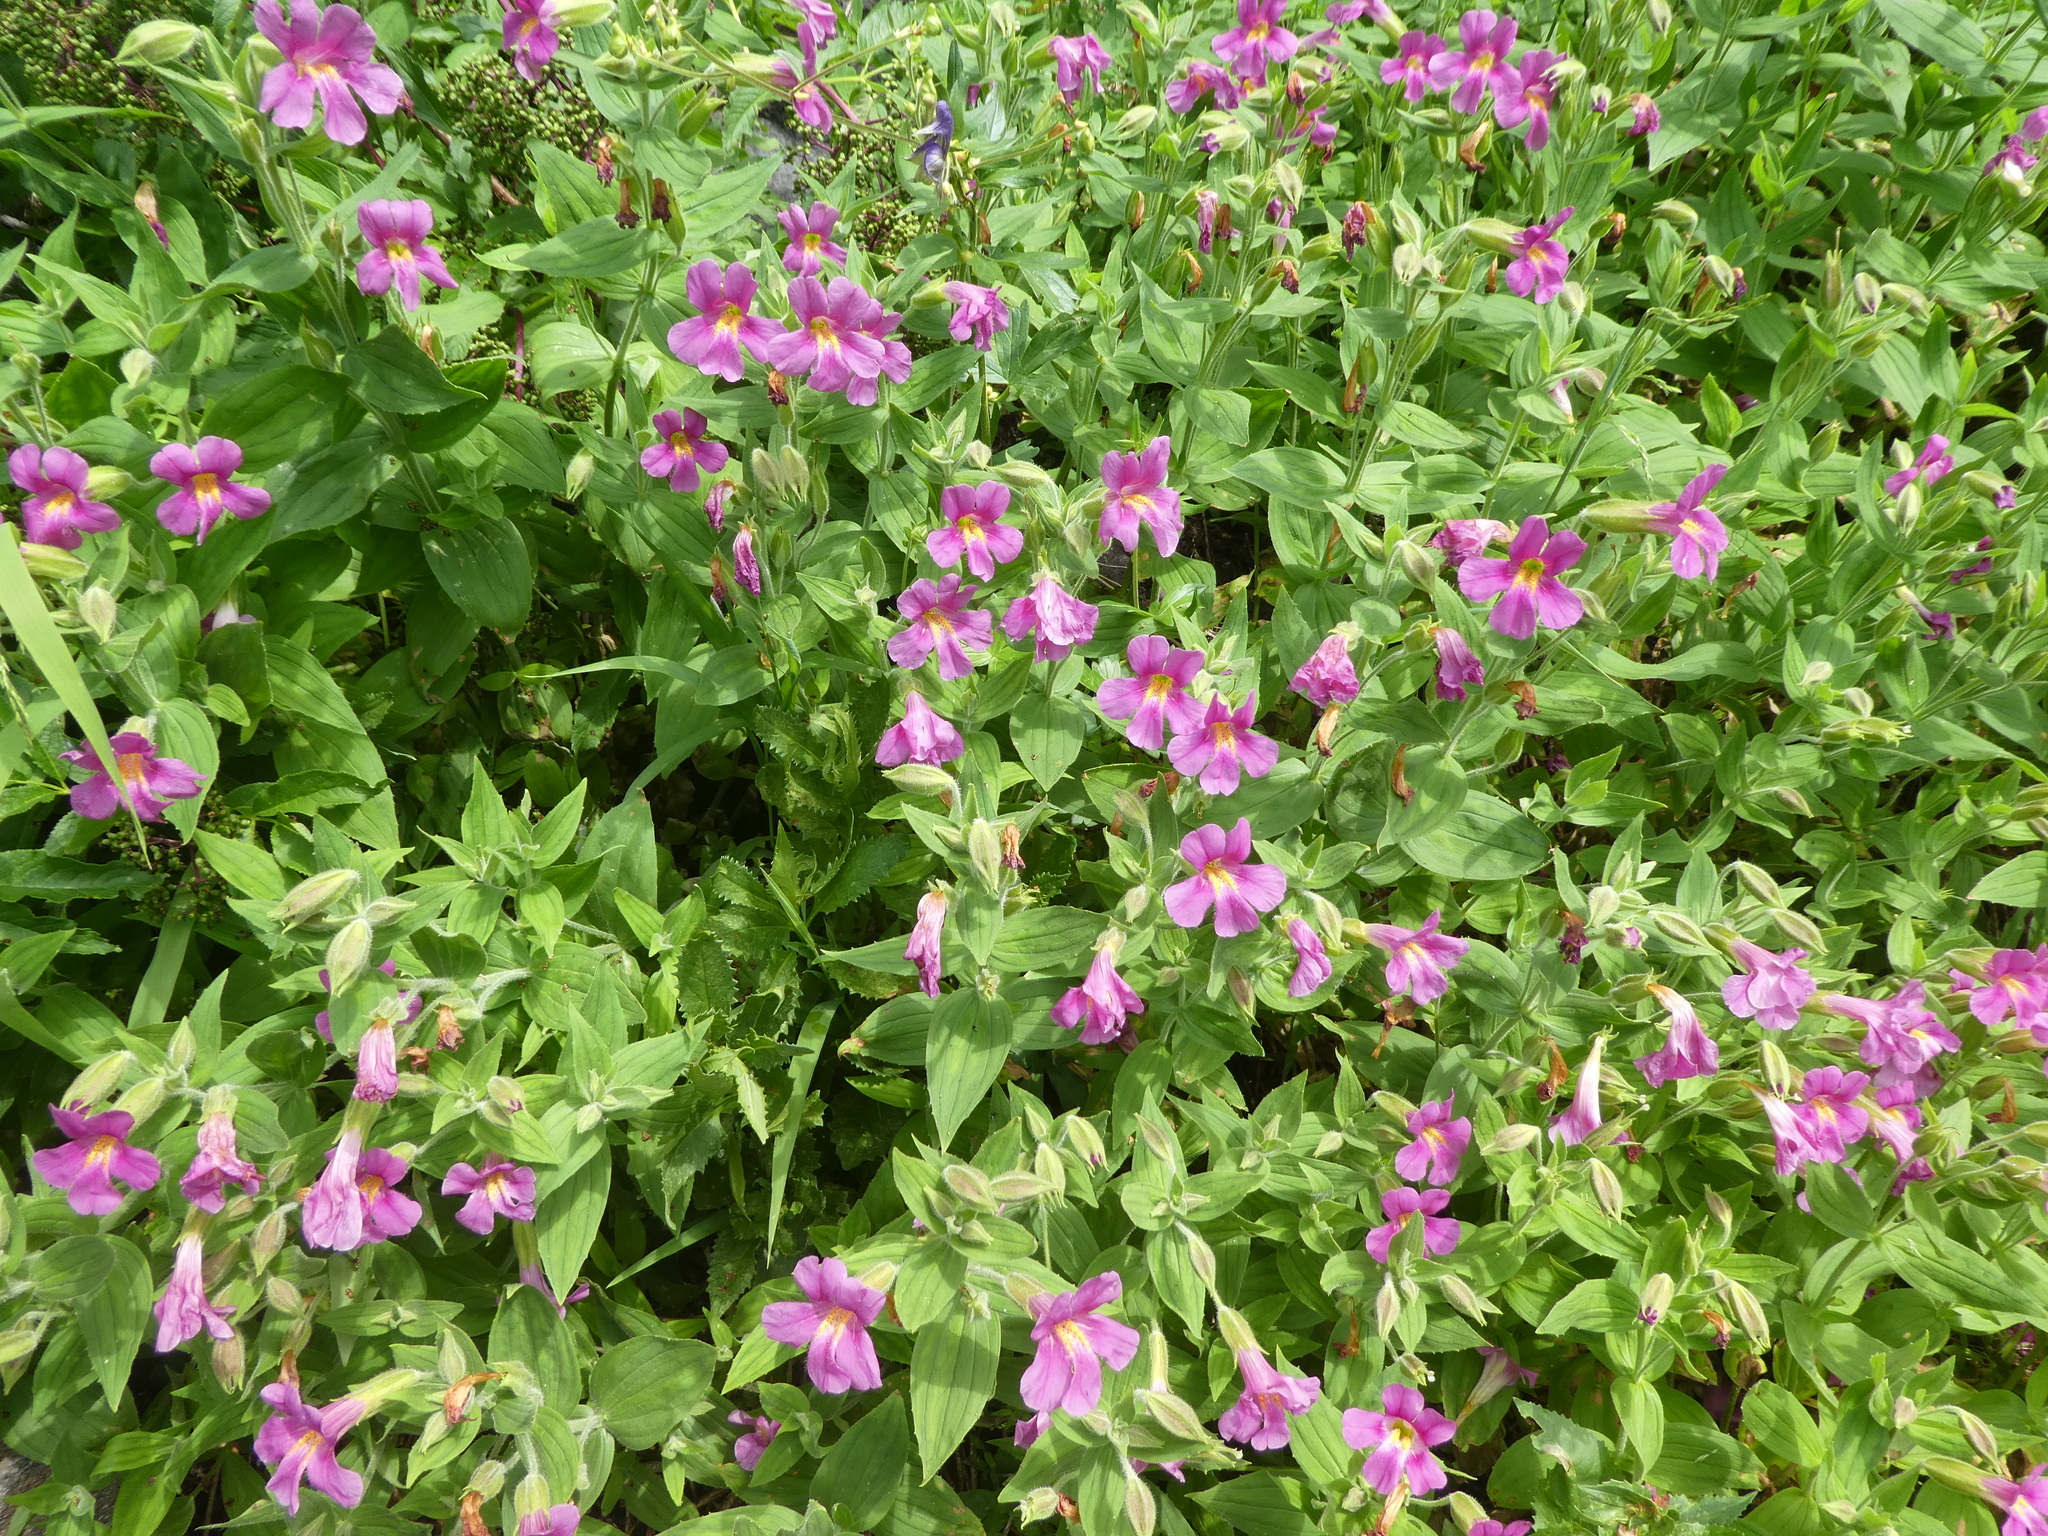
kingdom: Plantae
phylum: Tracheophyta
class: Magnoliopsida
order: Lamiales
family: Phrymaceae
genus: Erythranthe
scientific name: Erythranthe lewisii
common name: Lewis's monkey-flower
